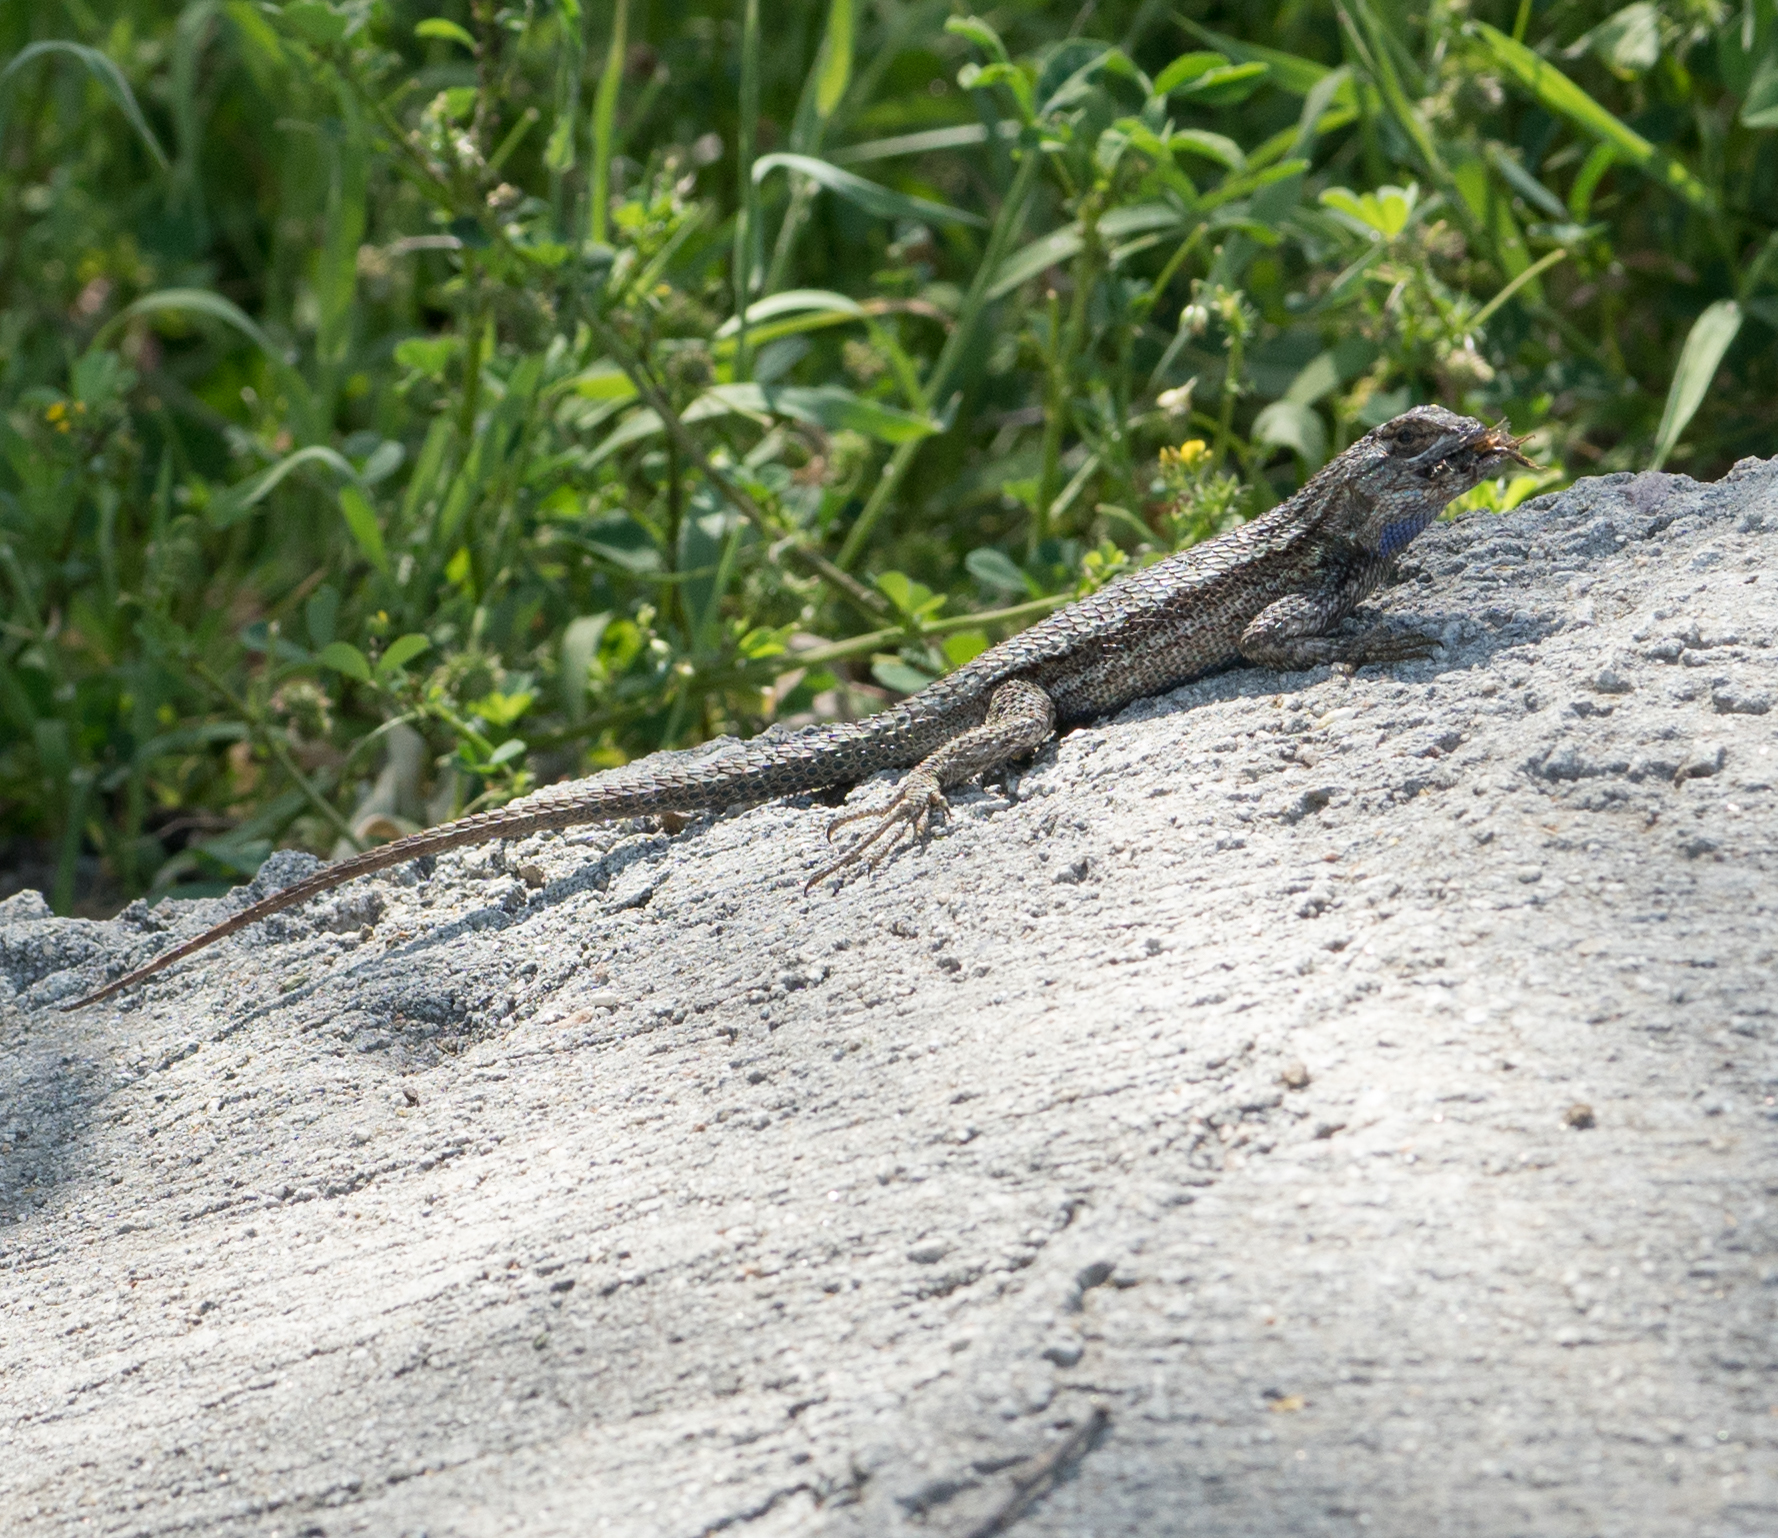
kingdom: Animalia
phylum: Chordata
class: Squamata
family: Phrynosomatidae
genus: Sceloporus
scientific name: Sceloporus occidentalis
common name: Western fence lizard
